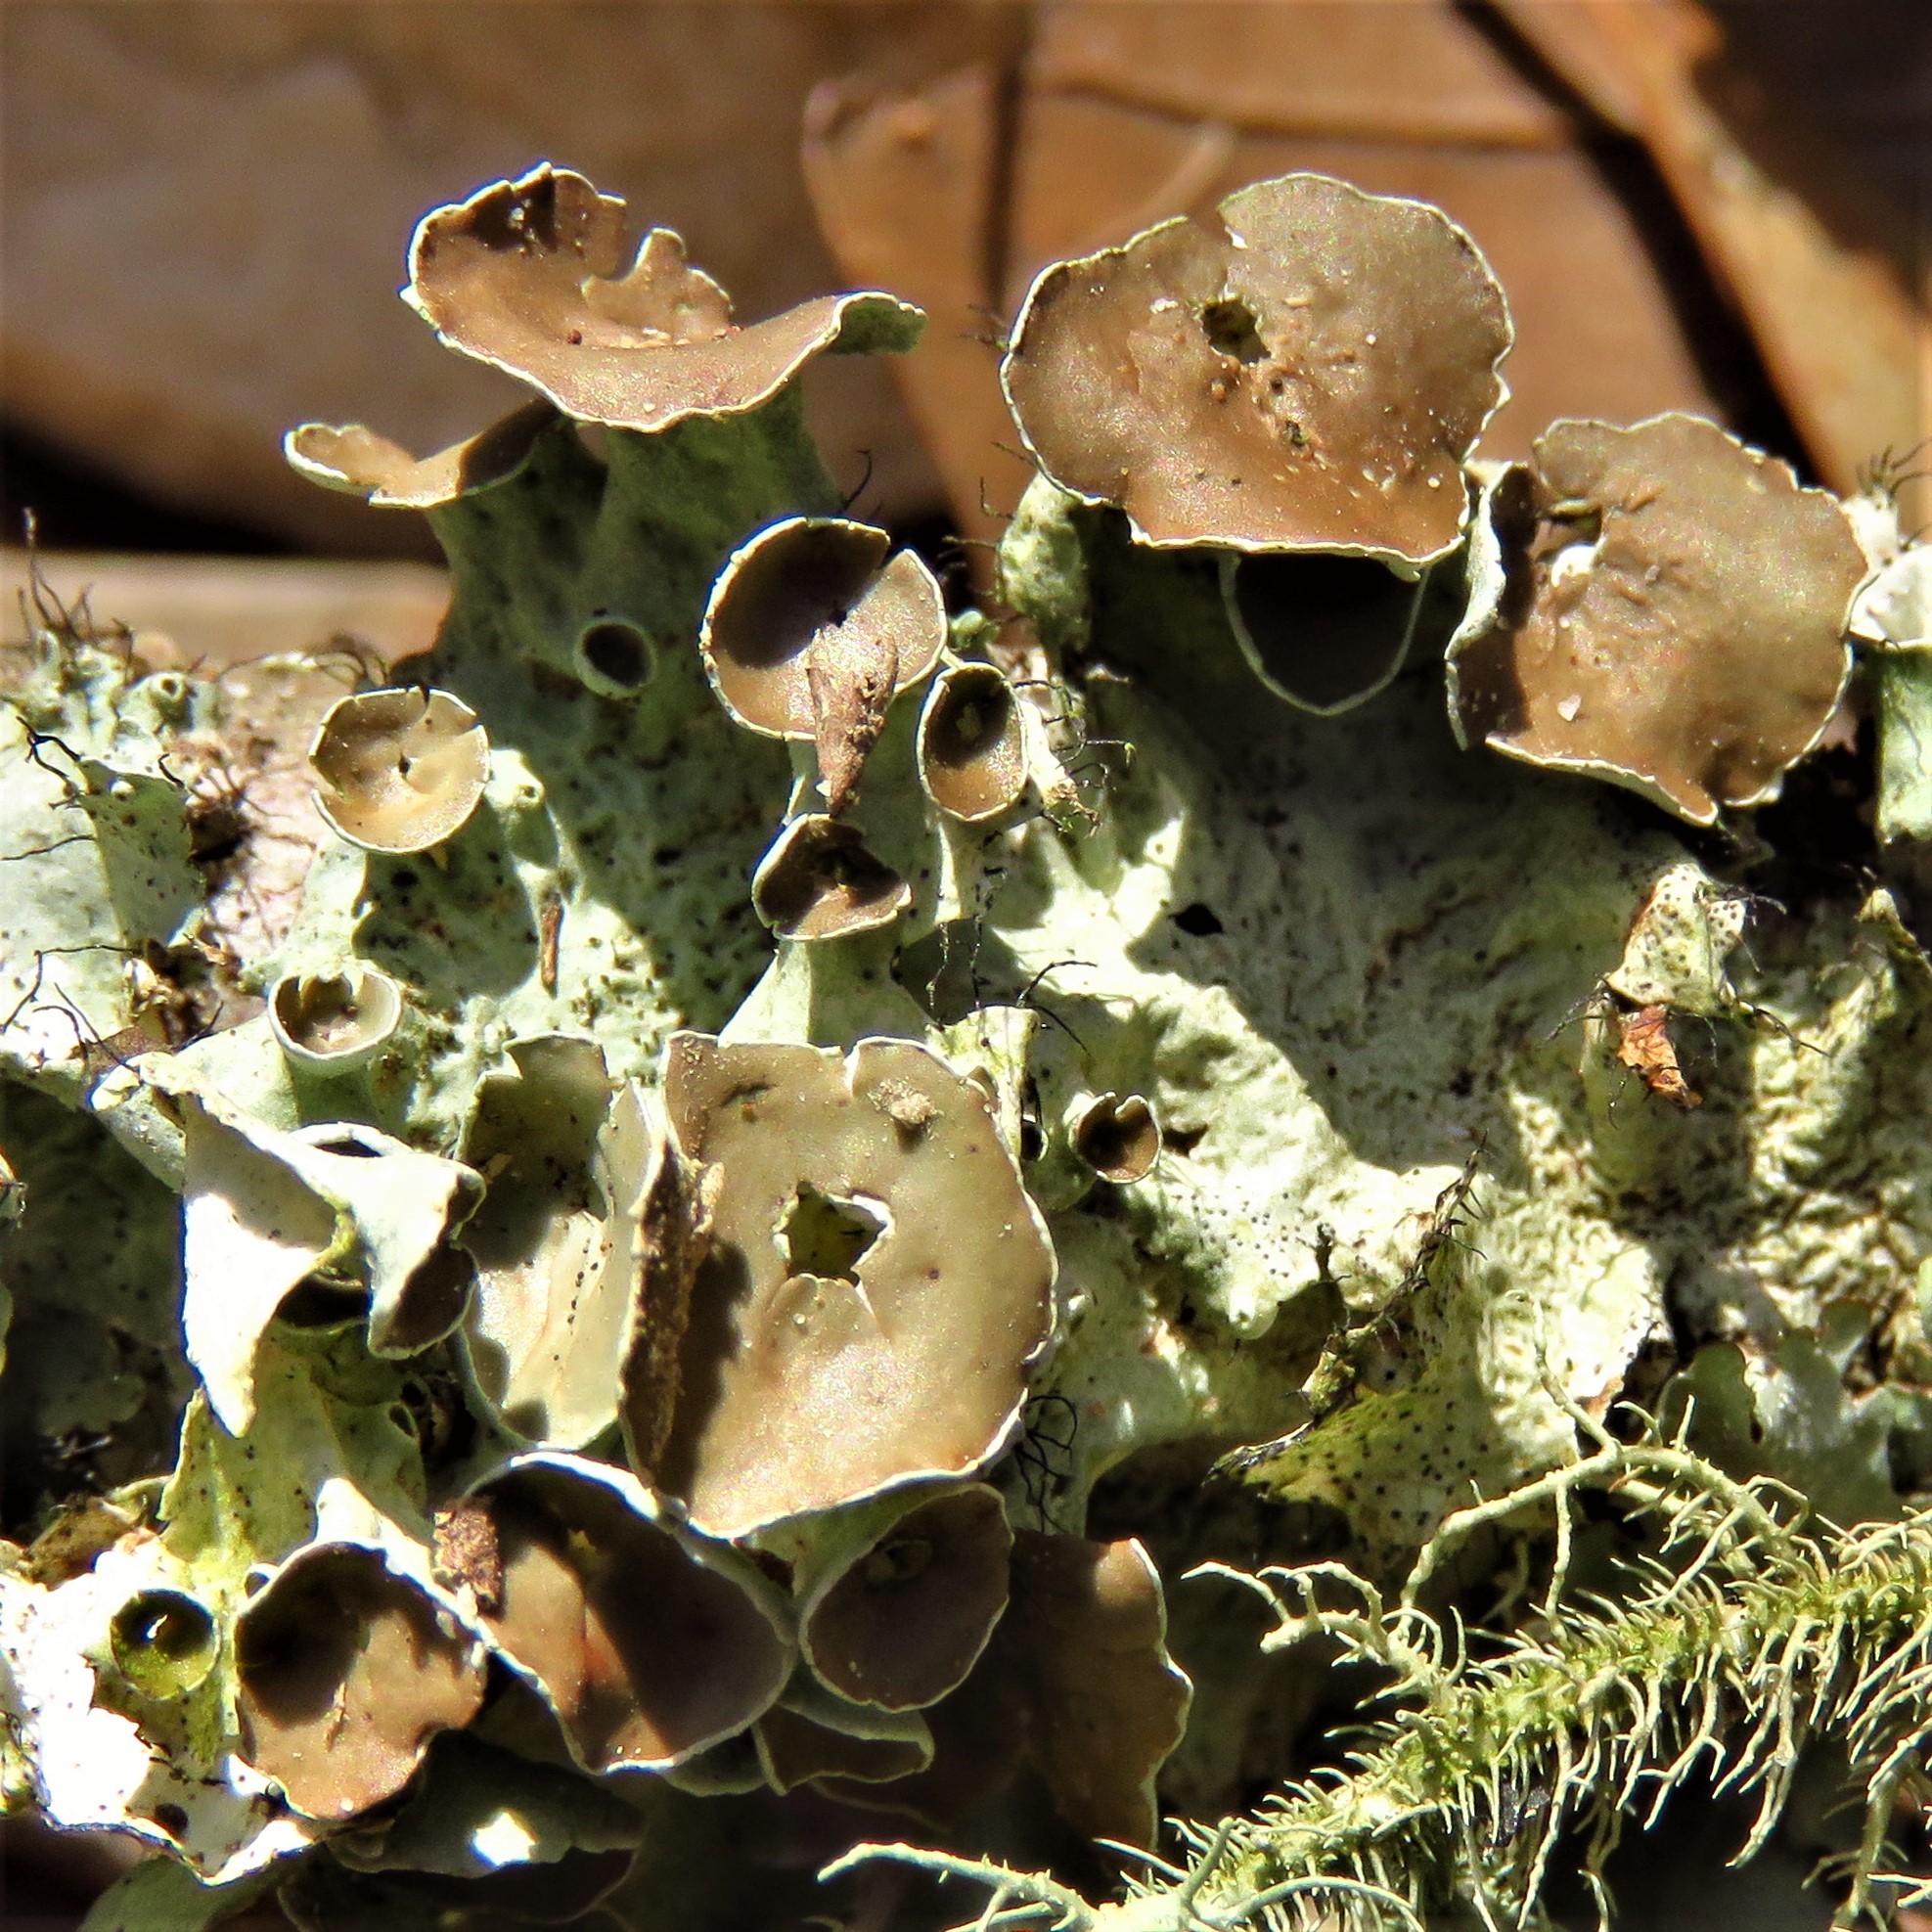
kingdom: Fungi
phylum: Ascomycota
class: Lecanoromycetes
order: Lecanorales
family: Parmeliaceae
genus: Parmotrema
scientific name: Parmotrema perforatum
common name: Perforated ruffle lichen
